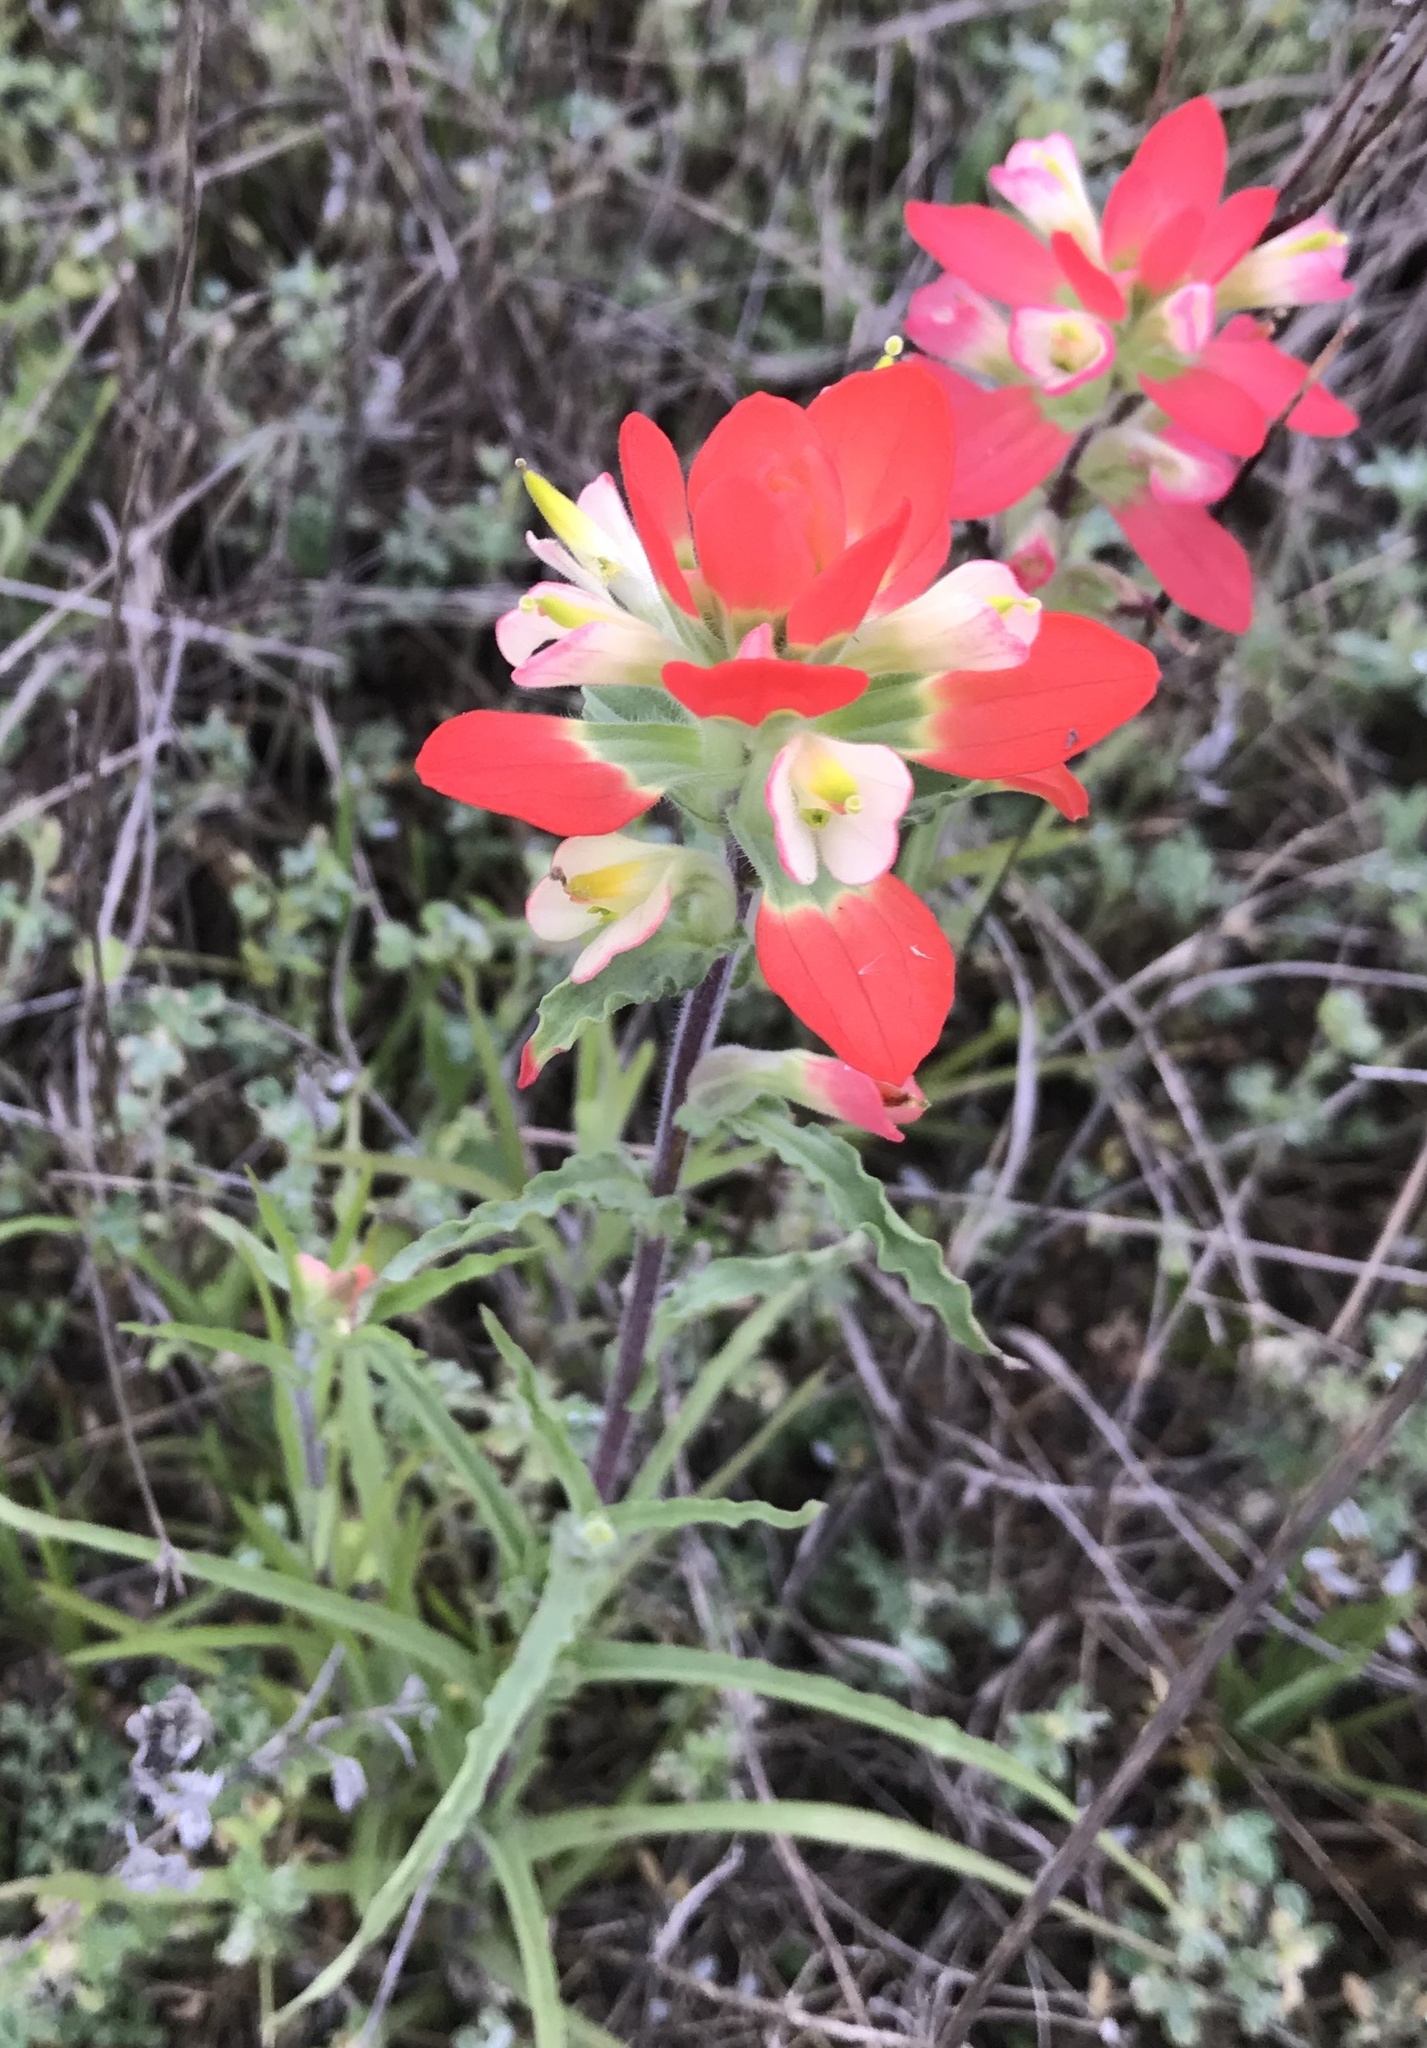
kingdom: Plantae
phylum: Tracheophyta
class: Magnoliopsida
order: Lamiales
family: Orobanchaceae
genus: Castilleja
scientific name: Castilleja indivisa
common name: Texas paintbrush
